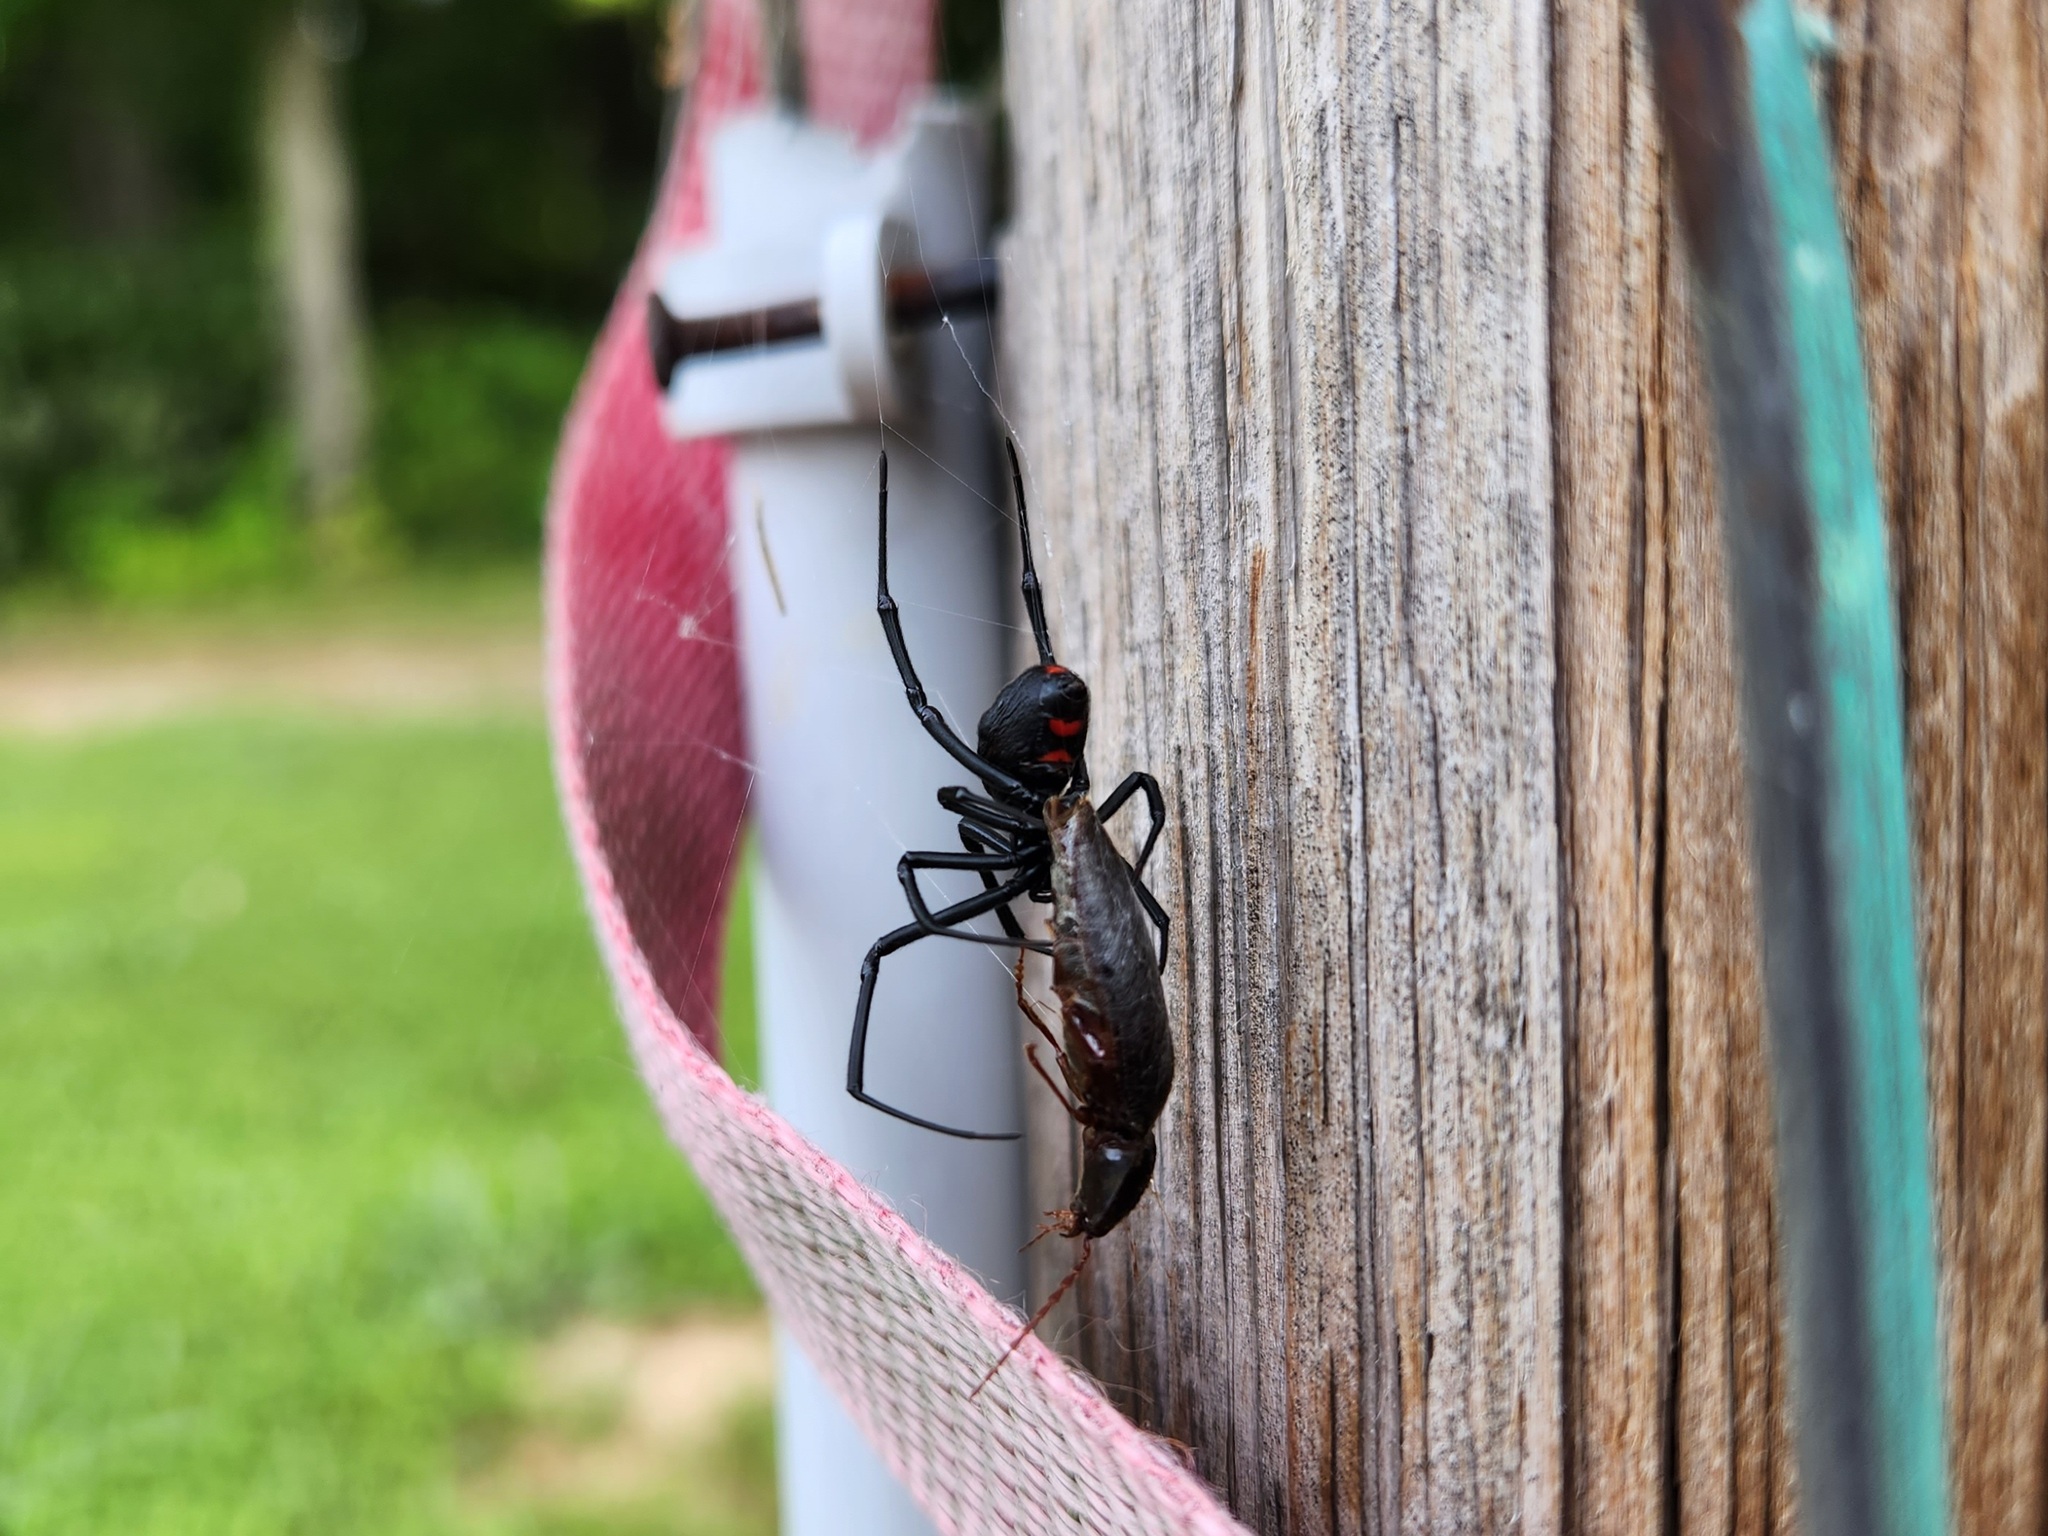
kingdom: Animalia
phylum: Arthropoda
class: Arachnida
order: Araneae
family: Theridiidae
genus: Latrodectus
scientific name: Latrodectus variolus
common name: Northern black widow
